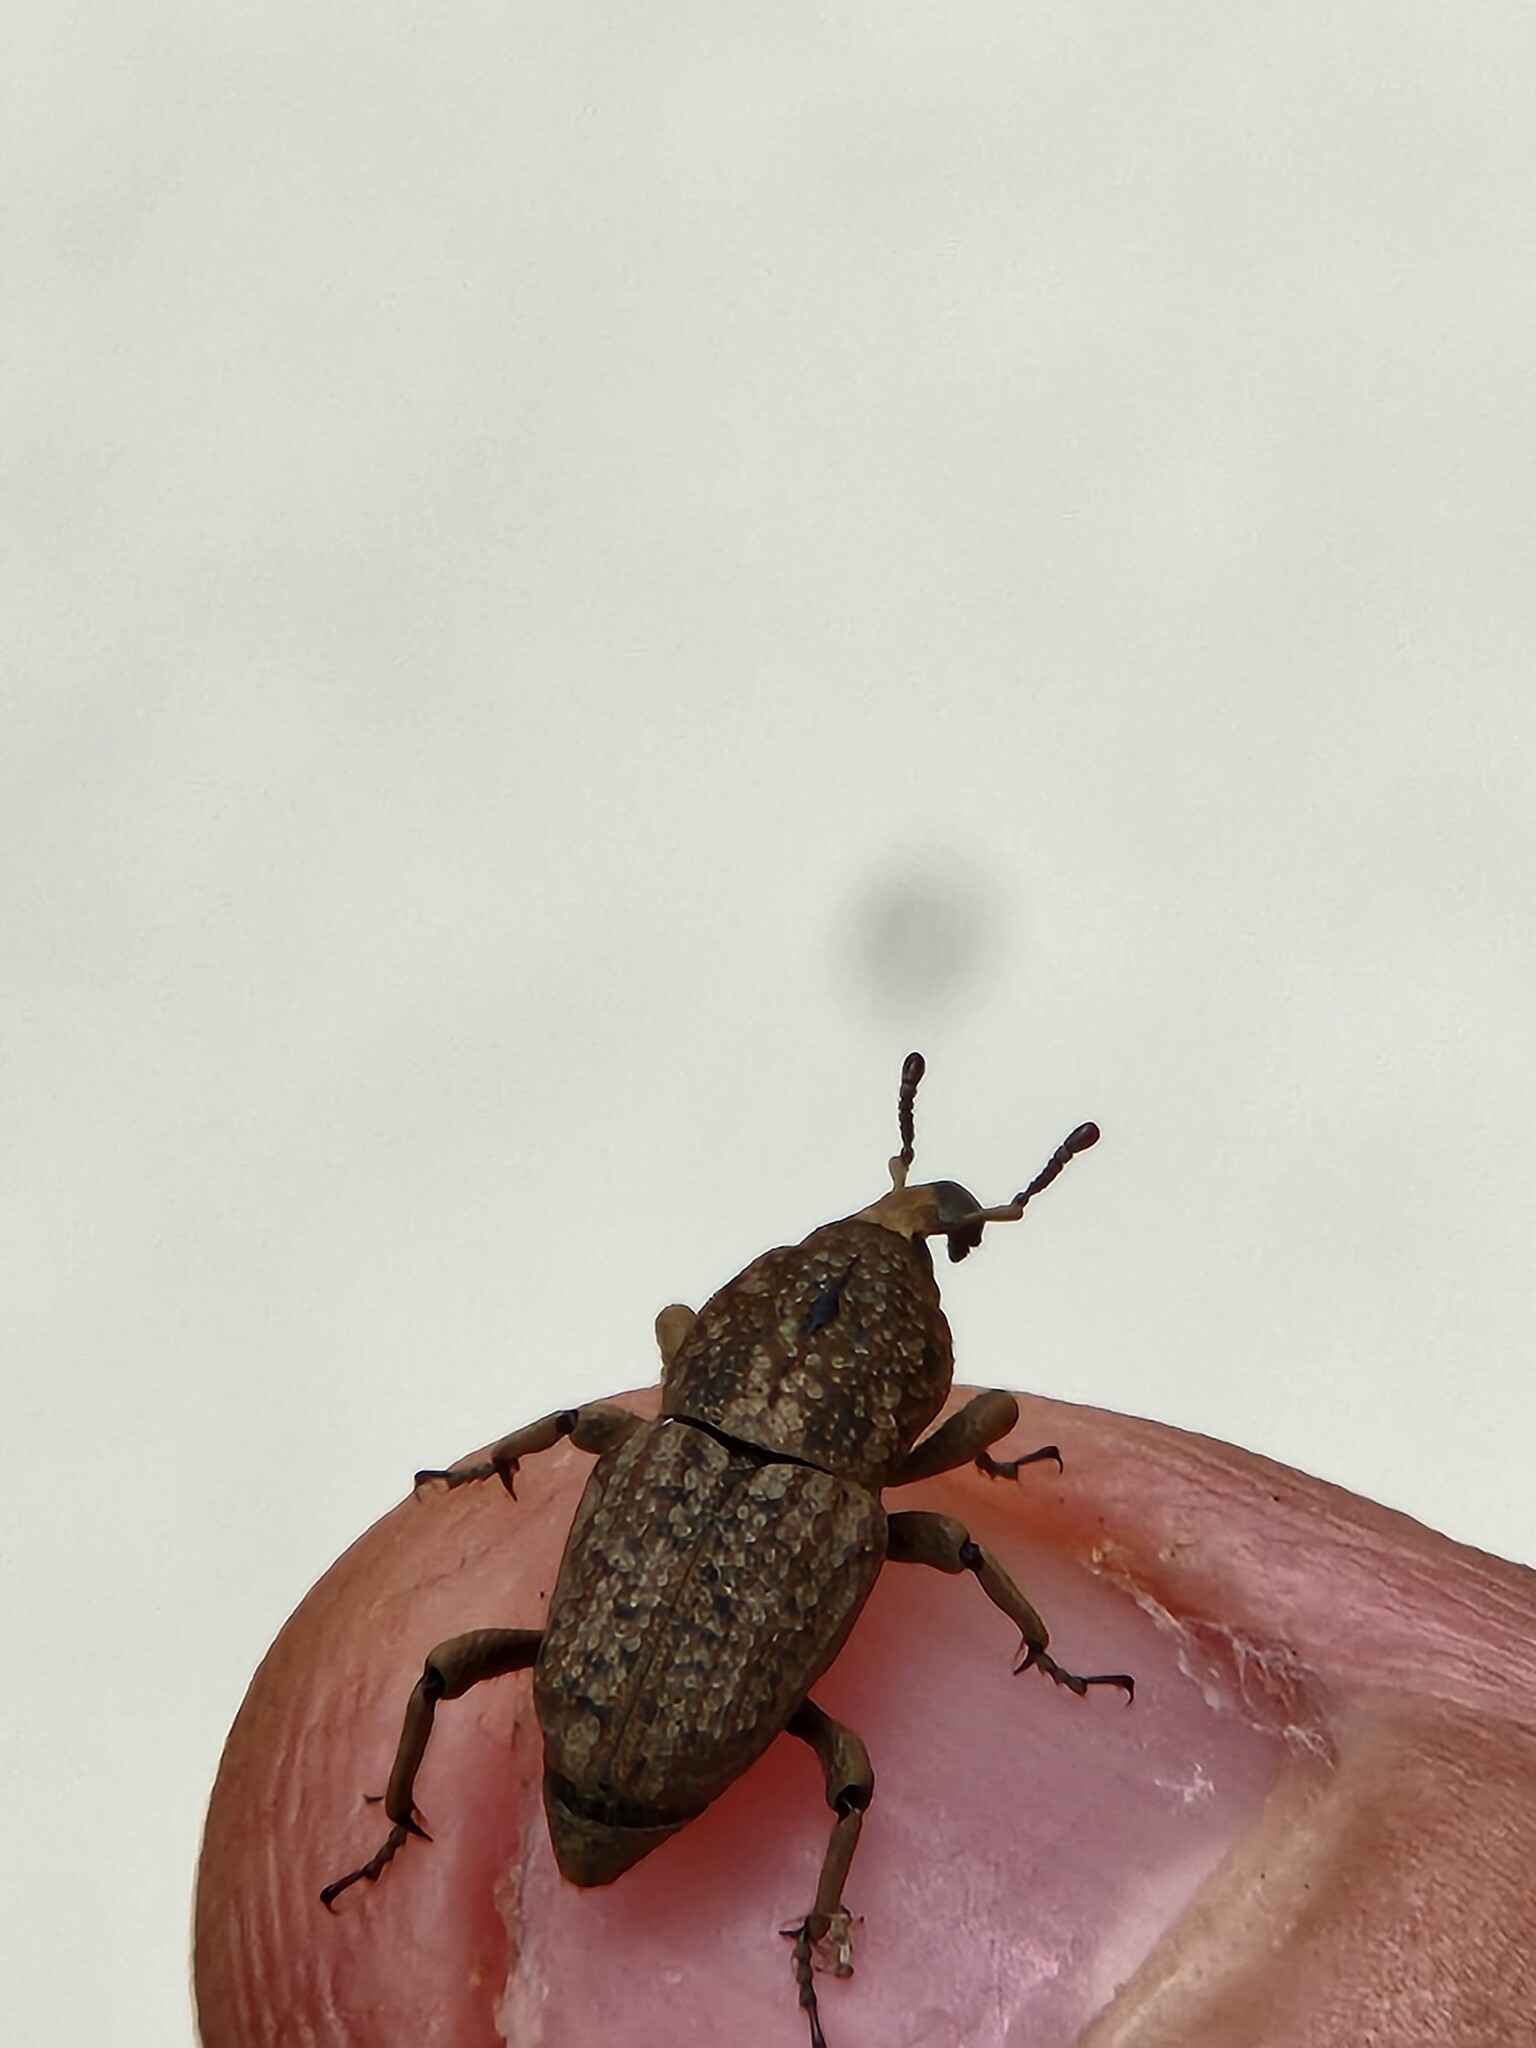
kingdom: Animalia
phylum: Arthropoda
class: Insecta
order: Coleoptera
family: Dryophthoridae
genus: Sphenophorus
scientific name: Sphenophorus rusticus
